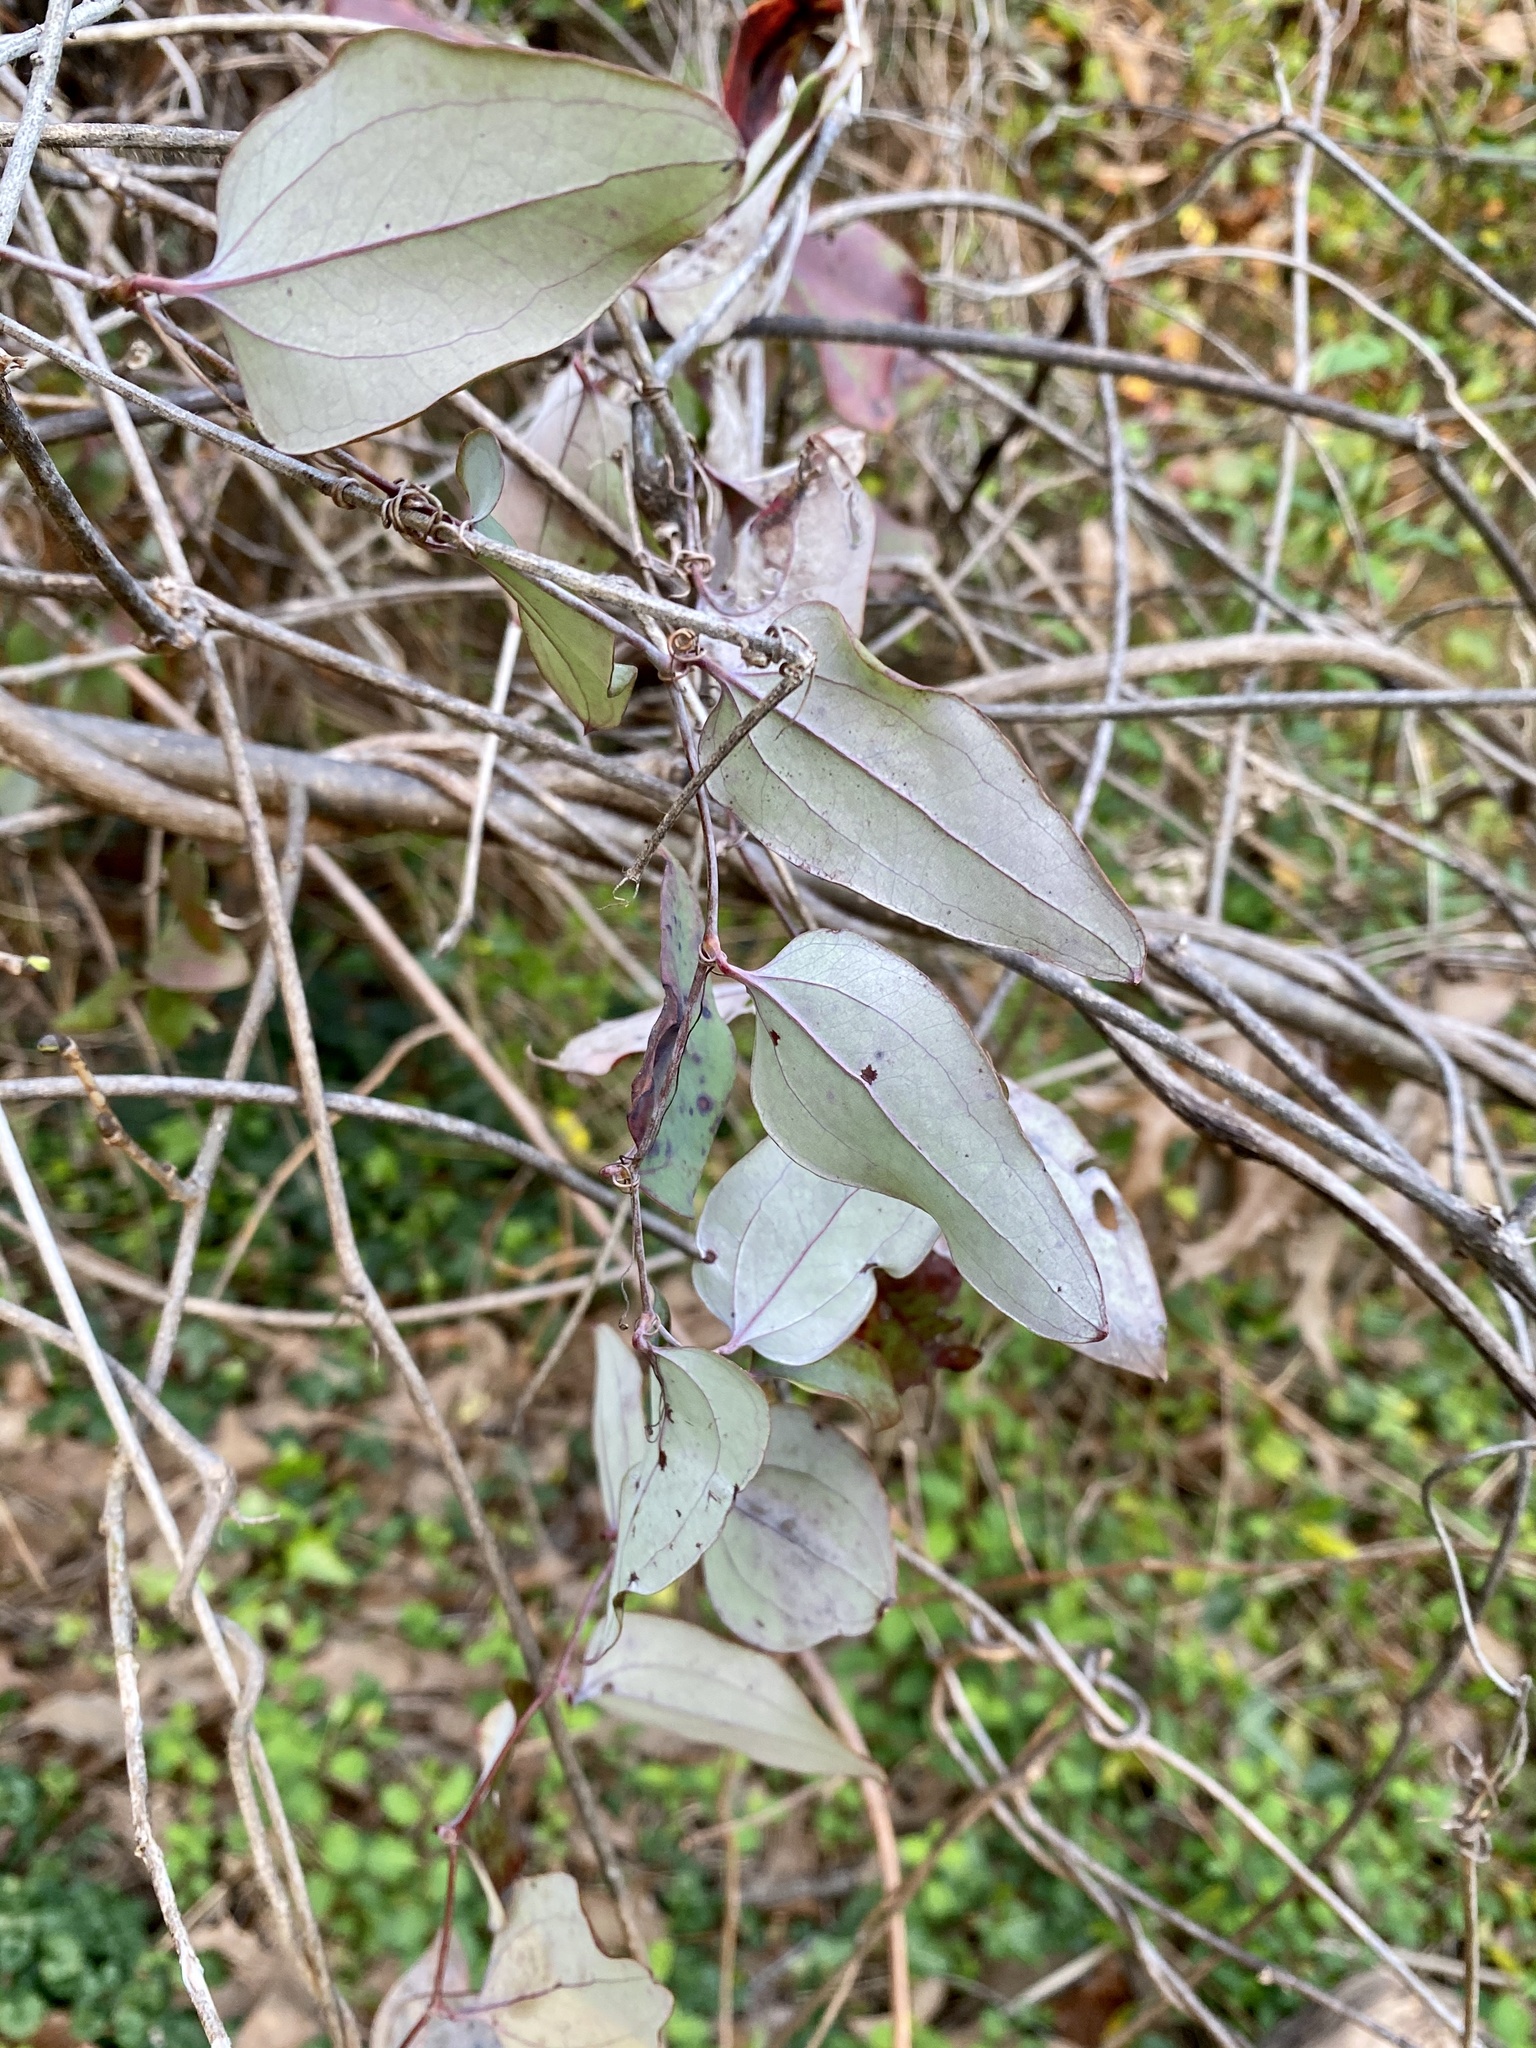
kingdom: Plantae
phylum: Tracheophyta
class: Liliopsida
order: Liliales
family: Smilacaceae
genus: Smilax
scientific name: Smilax glauca
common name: Cat greenbrier
